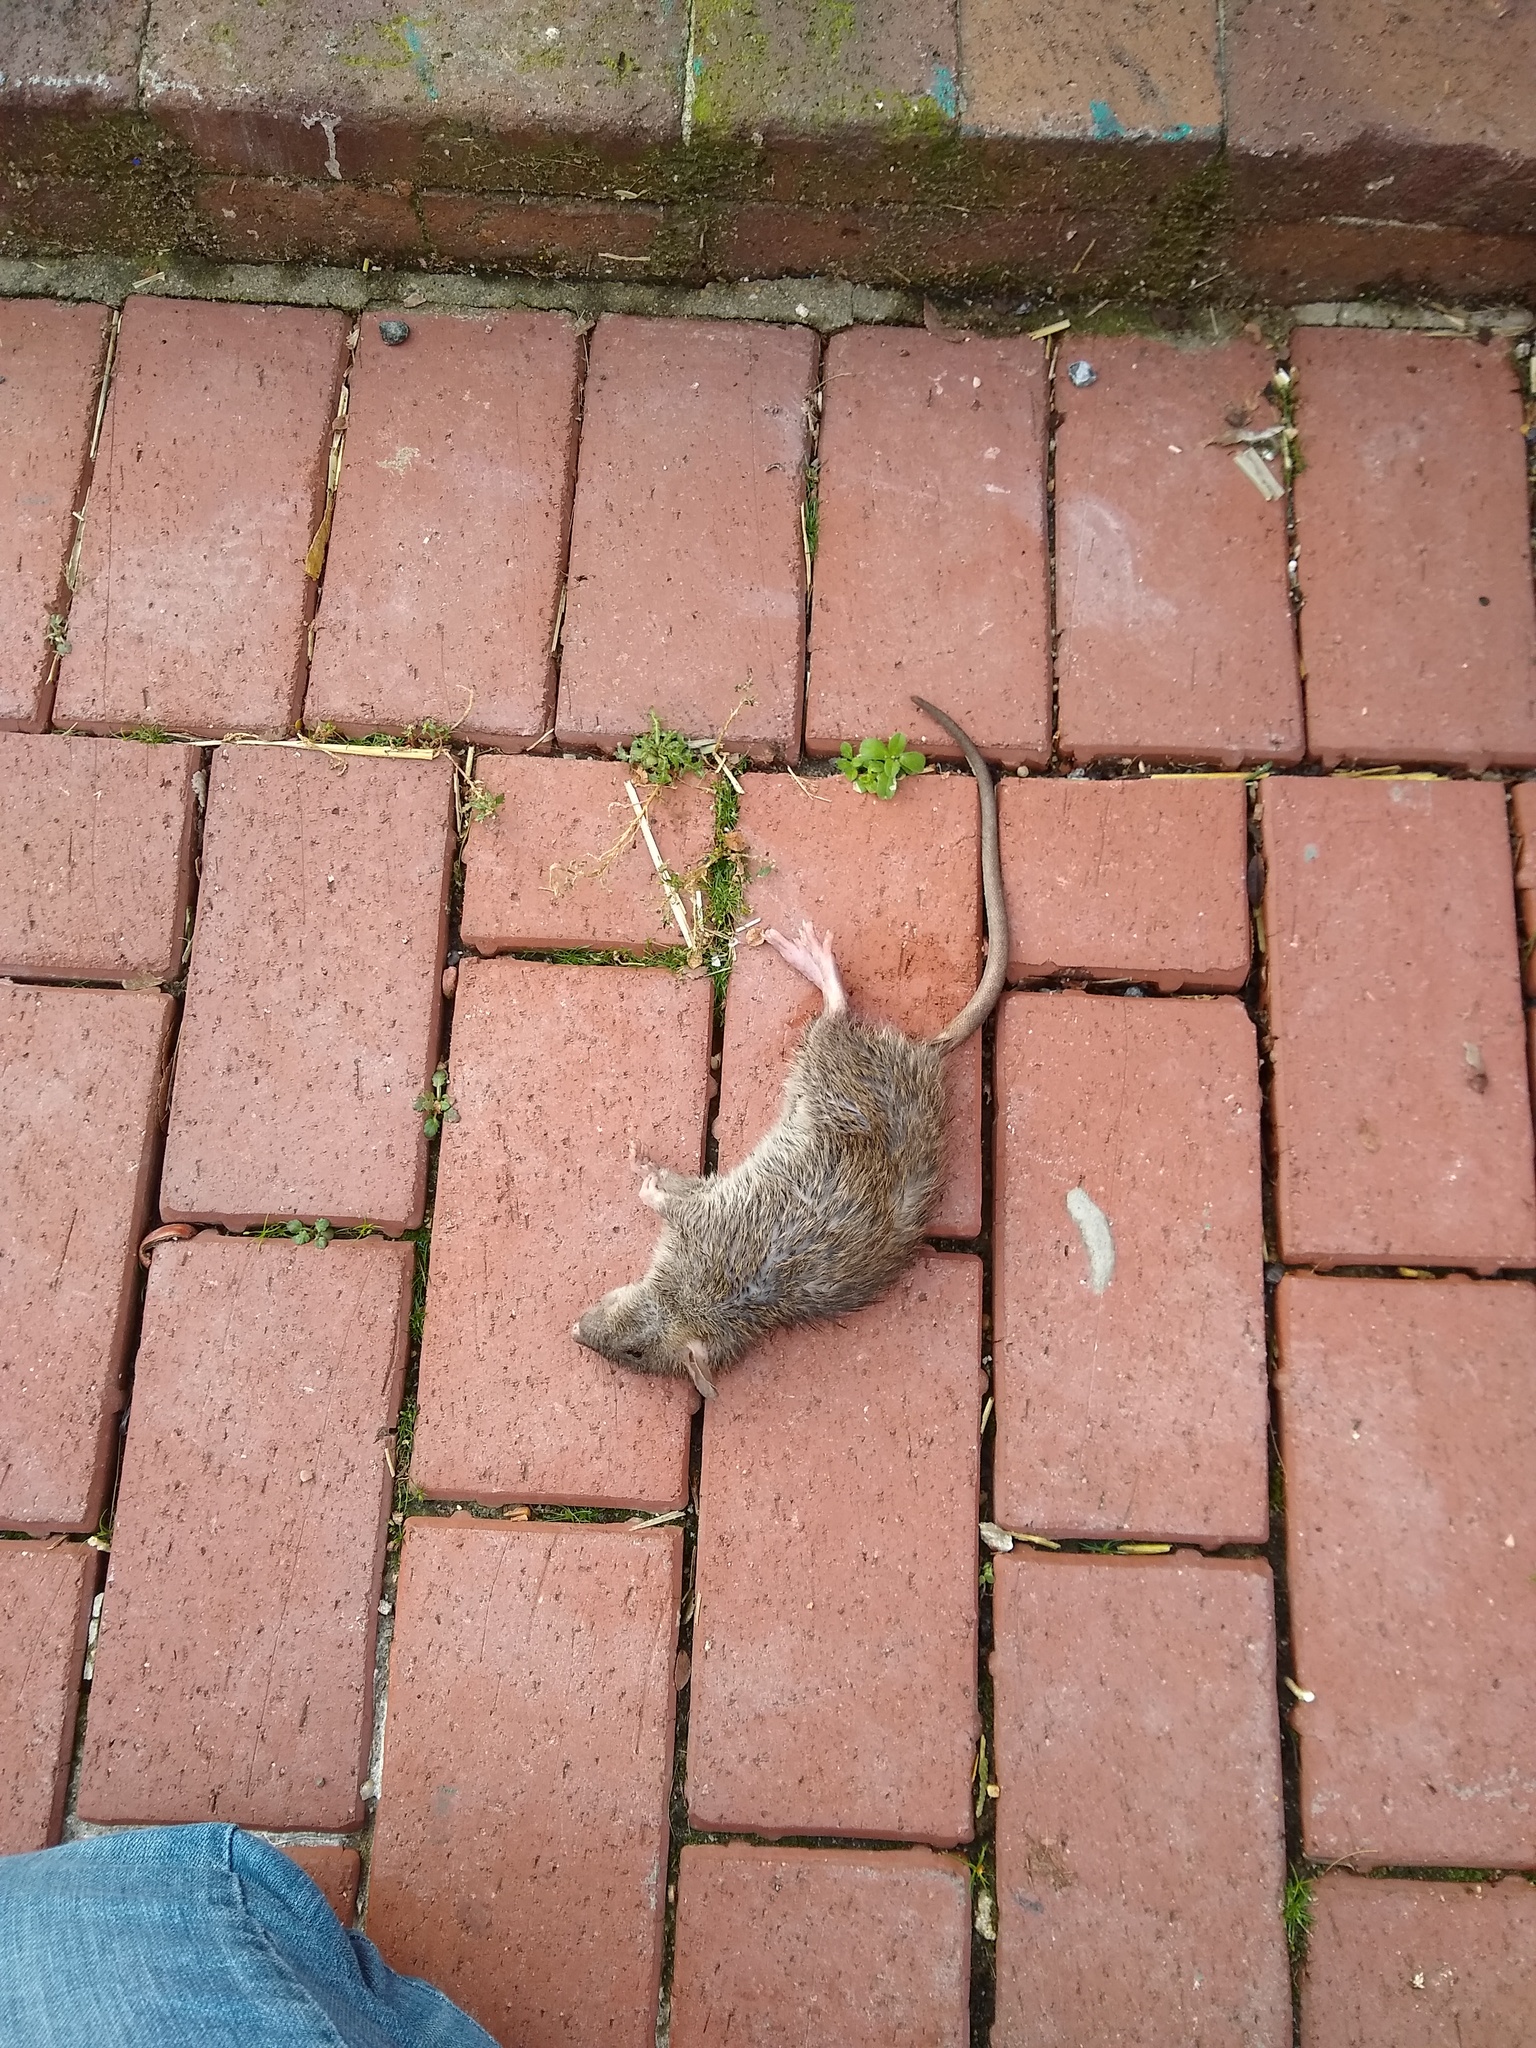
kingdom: Animalia
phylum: Chordata
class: Mammalia
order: Rodentia
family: Muridae
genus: Rattus
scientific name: Rattus norvegicus
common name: Brown rat
